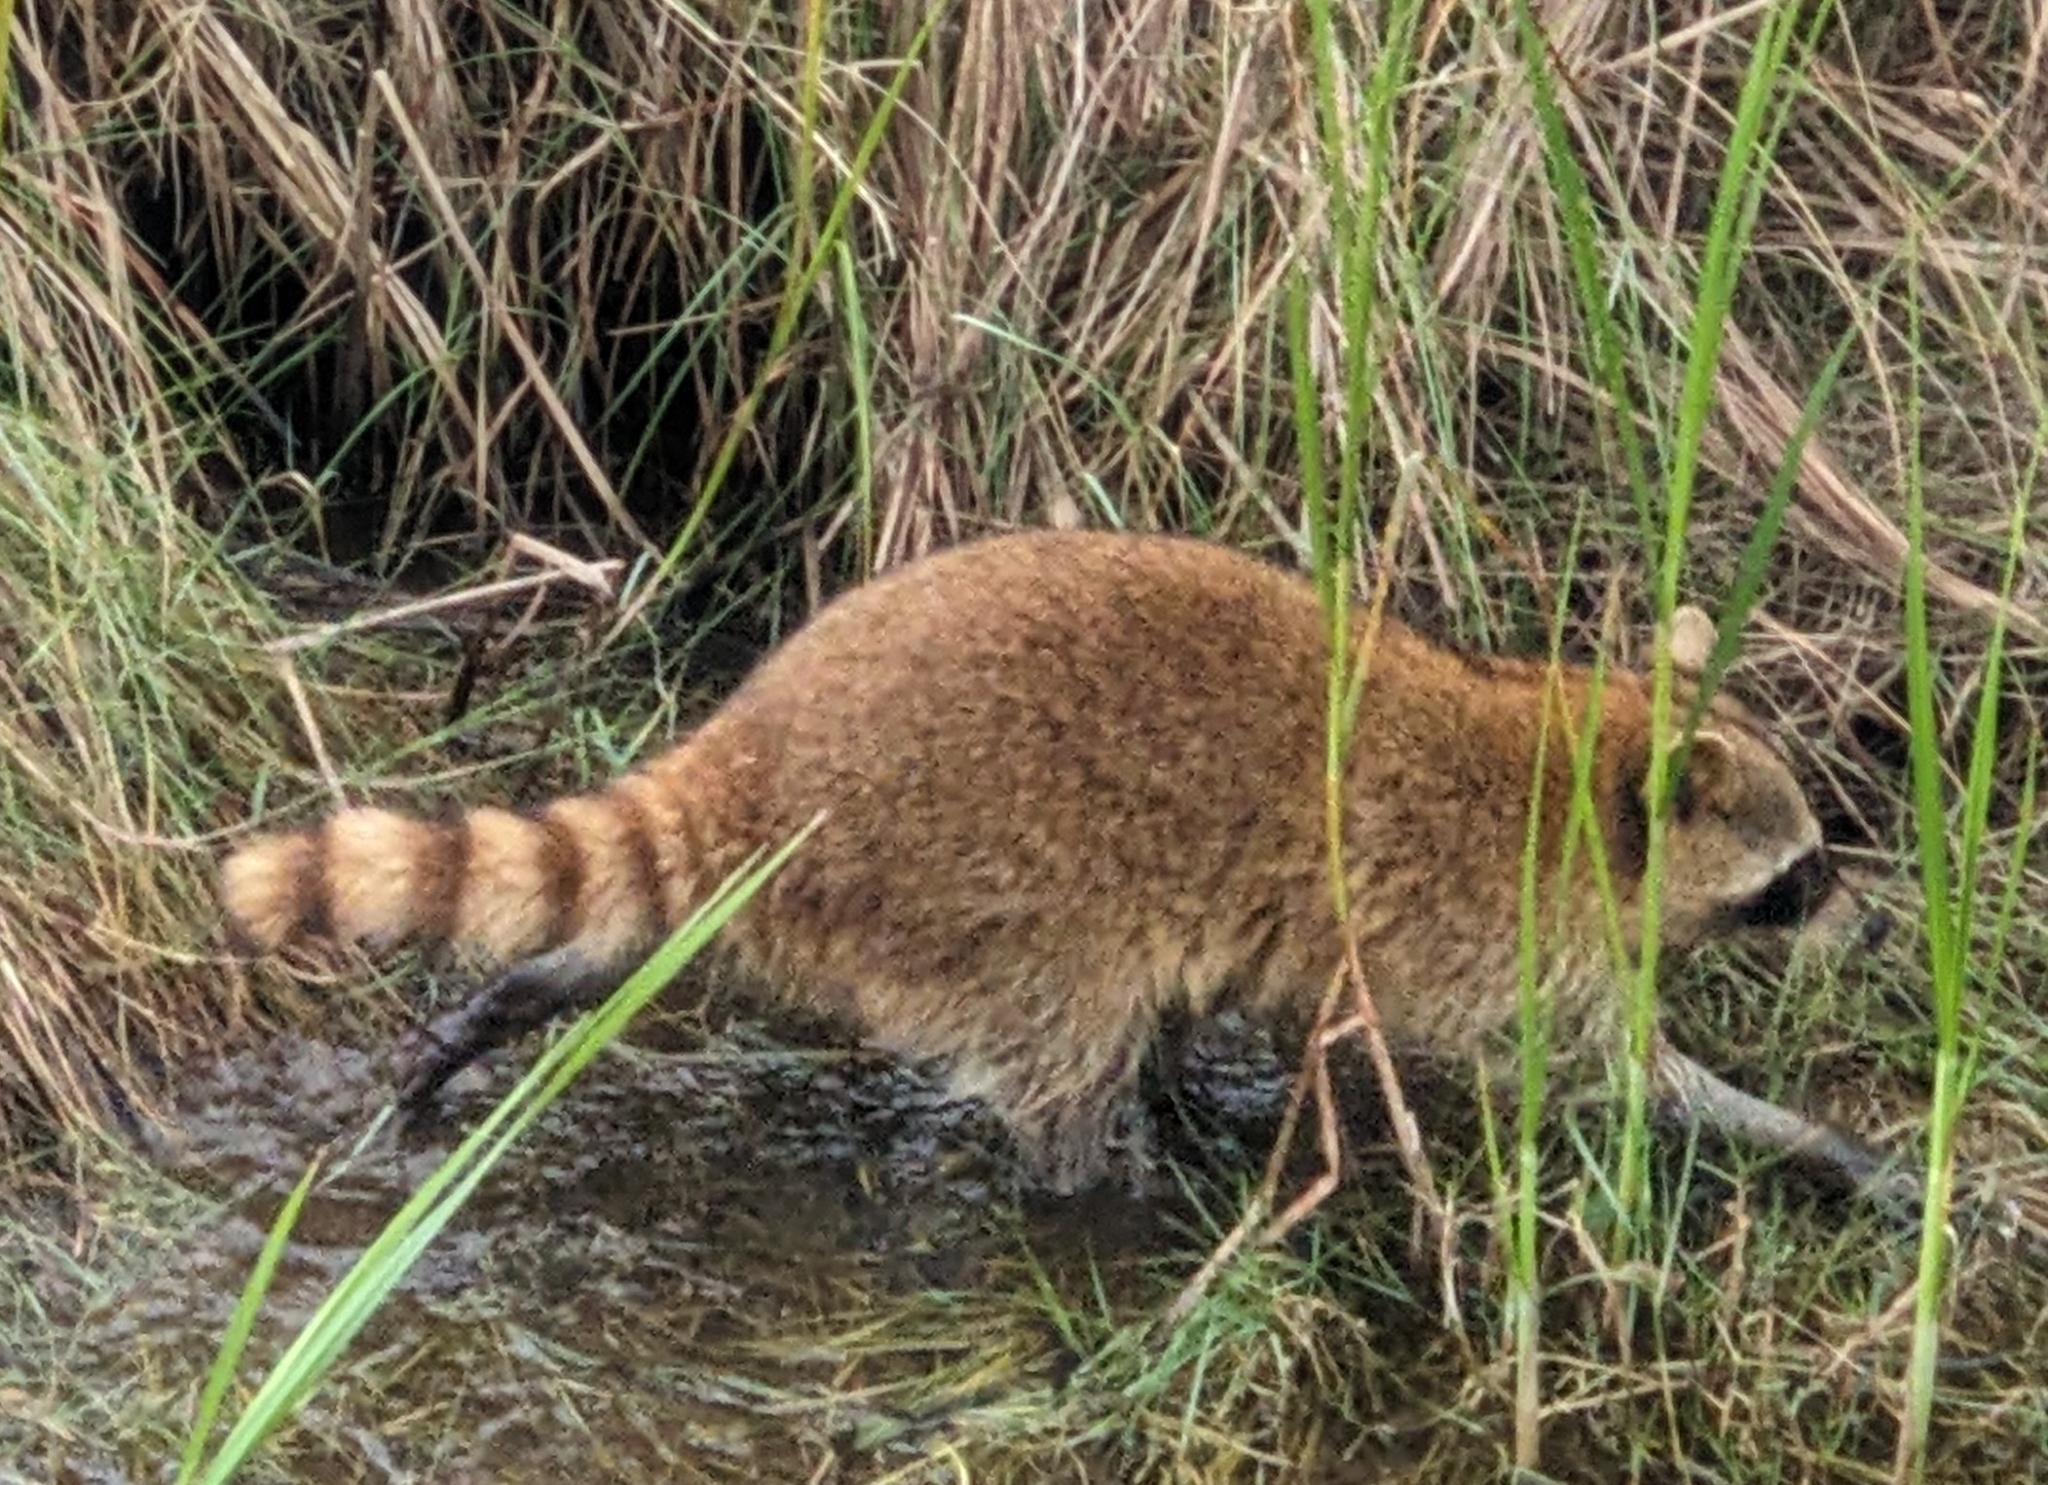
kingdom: Animalia
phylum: Chordata
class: Mammalia
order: Carnivora
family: Procyonidae
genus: Procyon
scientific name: Procyon lotor
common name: Raccoon
